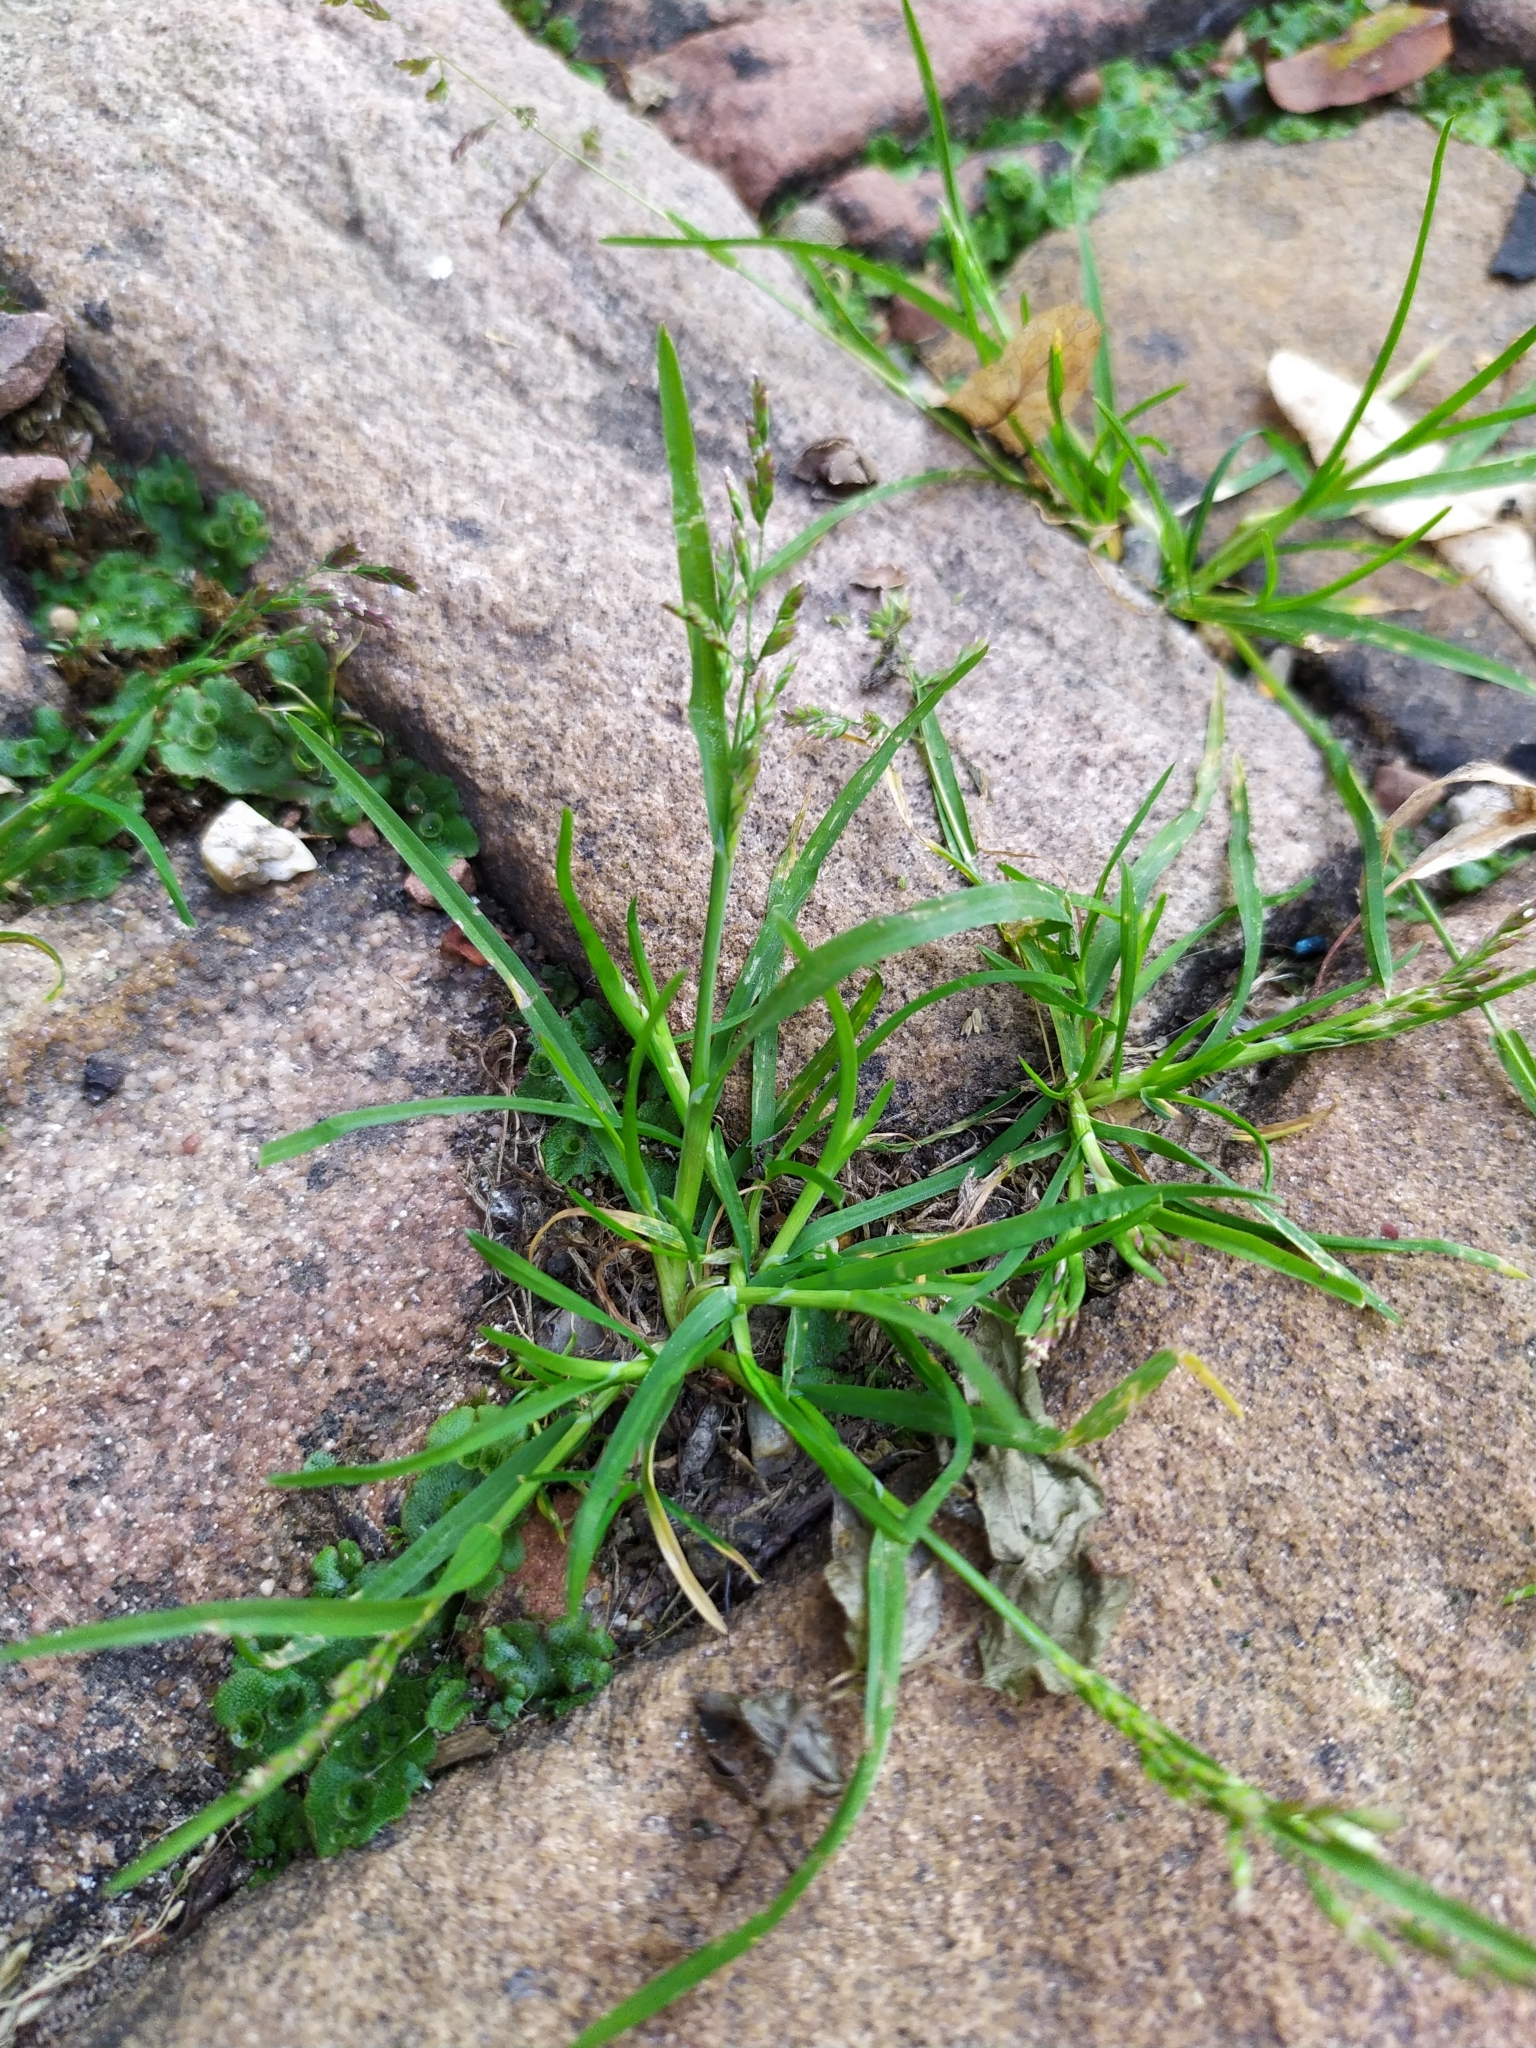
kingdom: Plantae
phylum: Tracheophyta
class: Liliopsida
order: Poales
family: Poaceae
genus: Poa
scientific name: Poa annua
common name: Annual bluegrass
